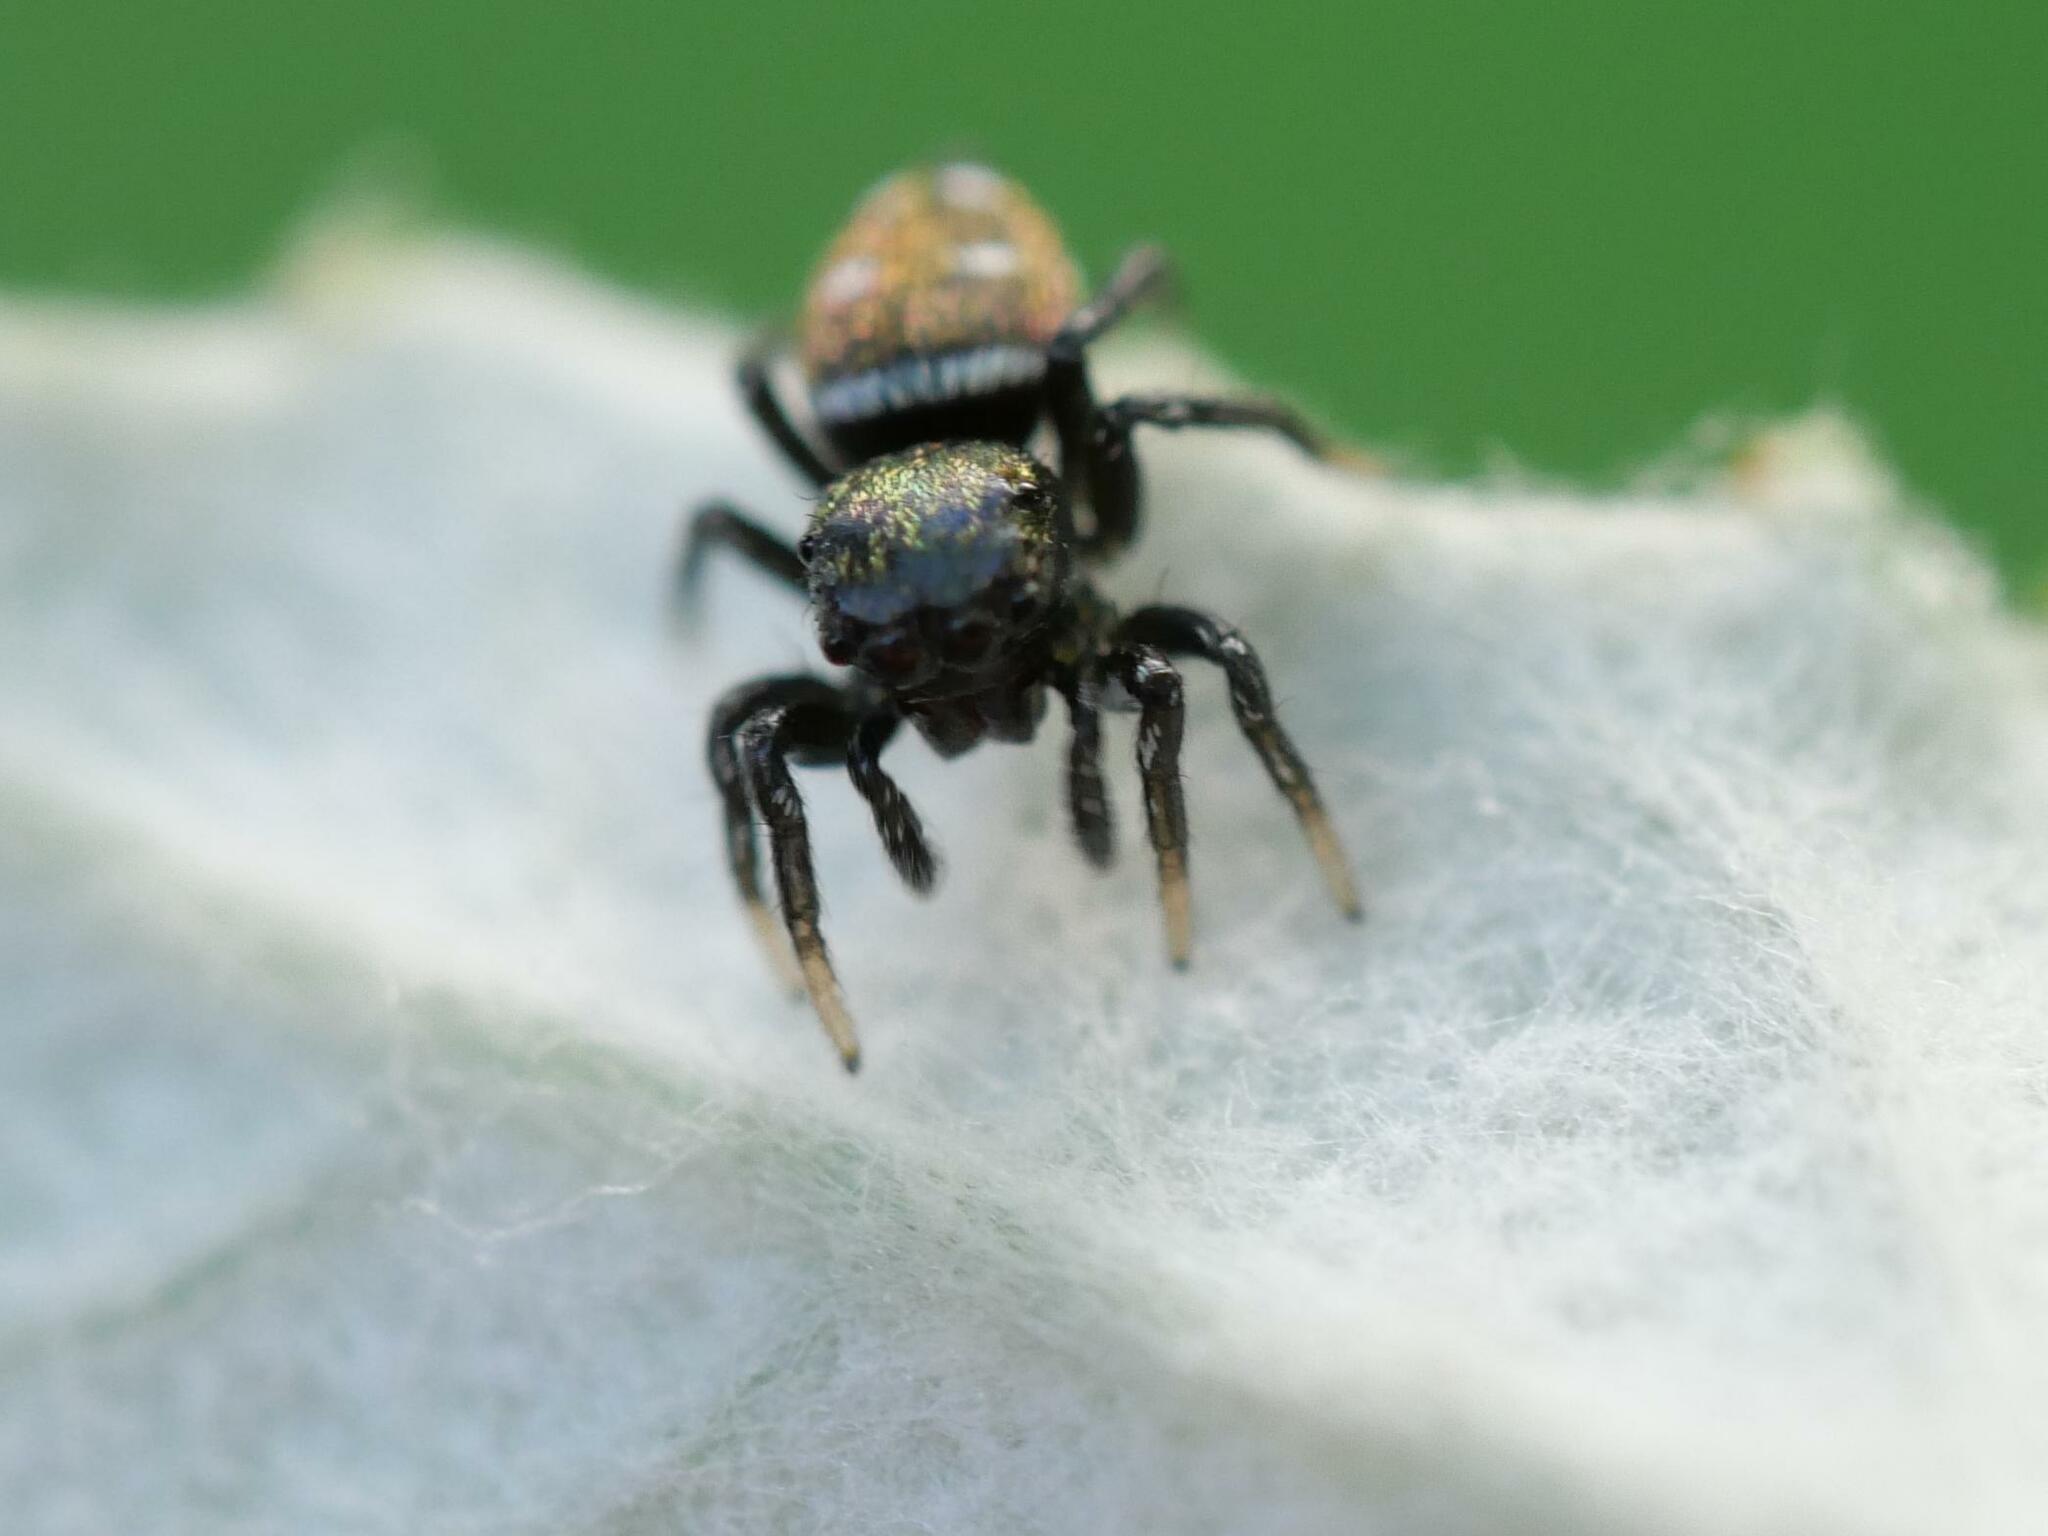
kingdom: Animalia
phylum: Arthropoda
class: Arachnida
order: Araneae
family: Salticidae
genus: Heliophanus
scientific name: Heliophanus kochii
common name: Sun jumping spider
